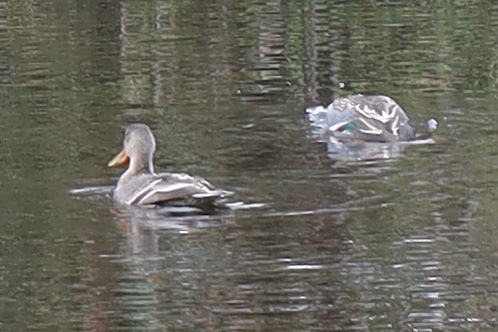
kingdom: Animalia
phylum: Chordata
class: Aves
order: Anseriformes
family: Anatidae
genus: Spatula
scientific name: Spatula clypeata
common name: Northern shoveler
